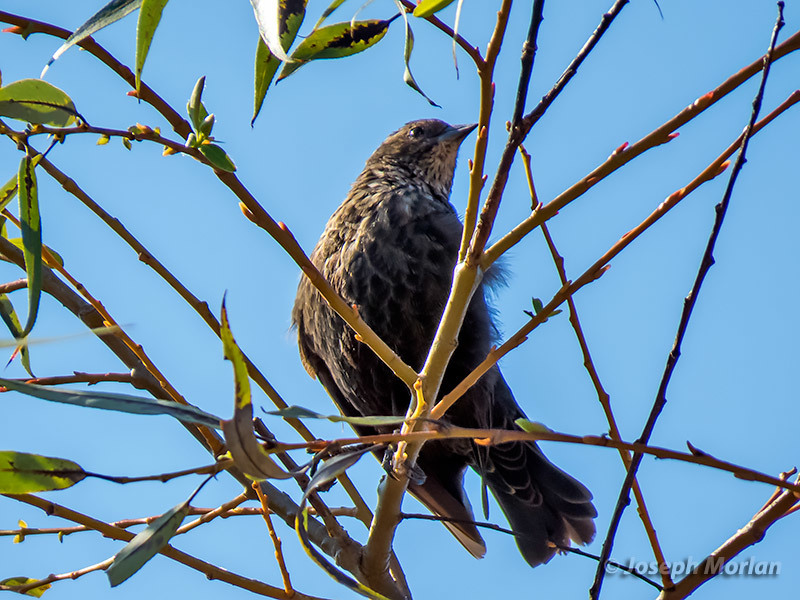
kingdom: Animalia
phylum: Chordata
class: Aves
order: Passeriformes
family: Icteridae
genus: Agelaius
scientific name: Agelaius phoeniceus
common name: Red-winged blackbird
